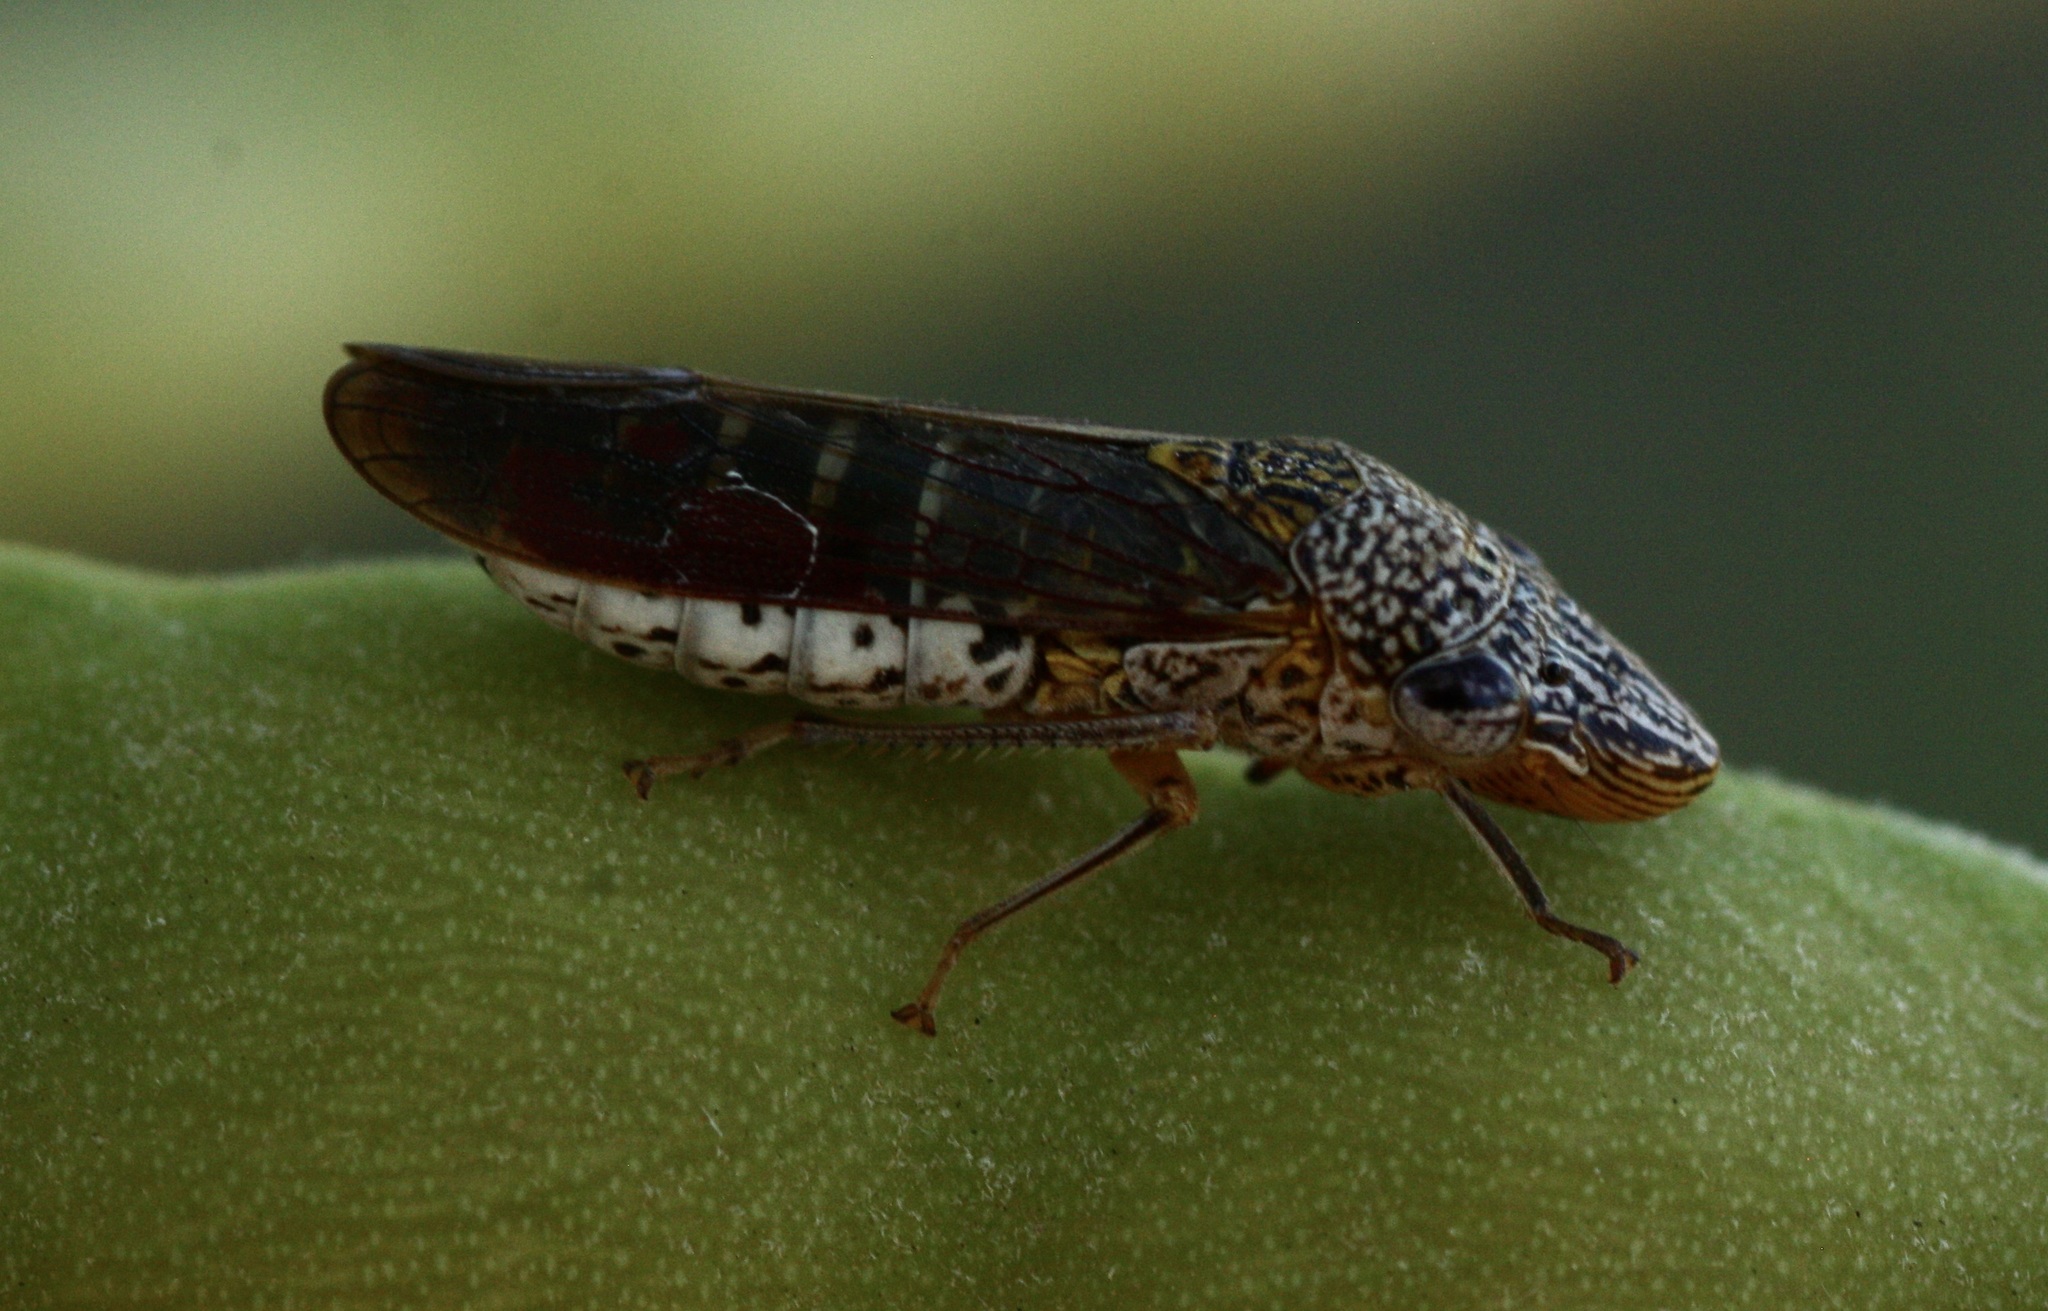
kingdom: Animalia
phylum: Arthropoda
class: Insecta
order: Hemiptera
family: Cicadellidae
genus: Homalodisca
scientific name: Homalodisca liturata
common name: Lacertate sharpshooter
